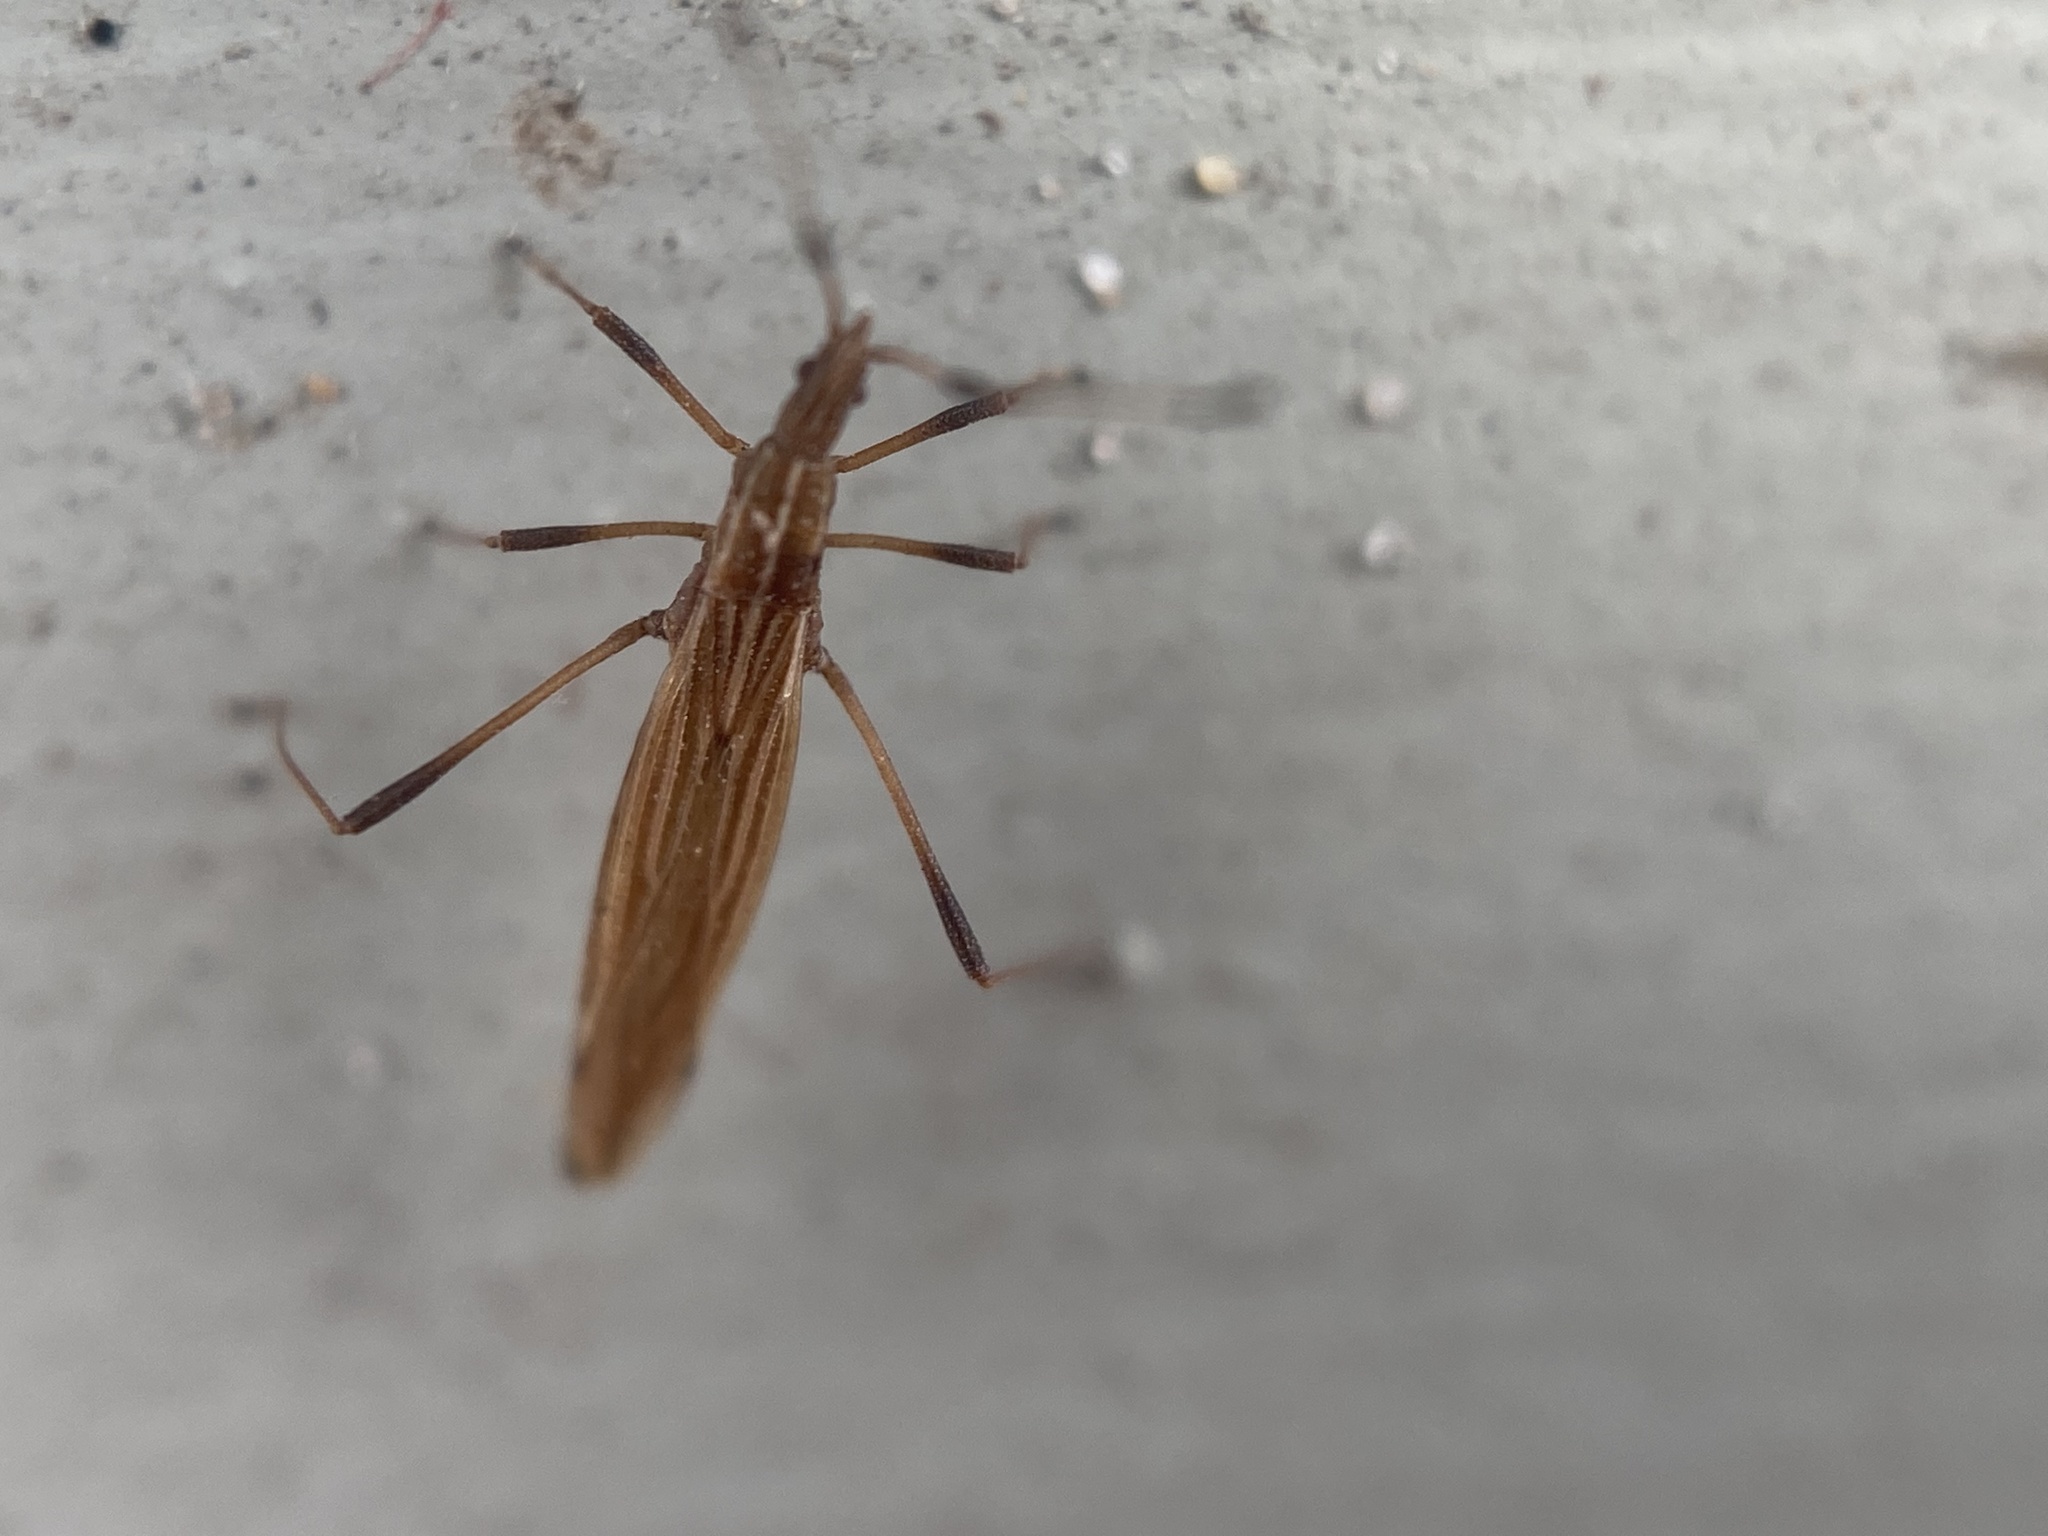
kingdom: Animalia
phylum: Arthropoda
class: Insecta
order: Hemiptera
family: Berytidae
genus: Berytinus
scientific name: Berytinus minor
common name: Stilt bug
